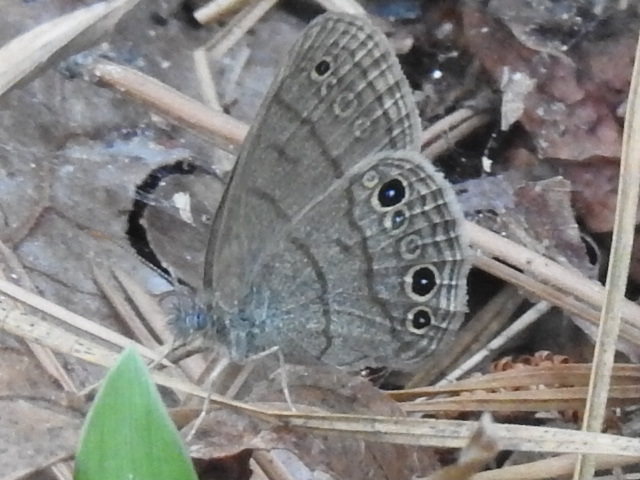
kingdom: Animalia
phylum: Arthropoda
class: Insecta
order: Lepidoptera
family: Nymphalidae
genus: Hermeuptychia
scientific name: Hermeuptychia hermes
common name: Hermes satyr
